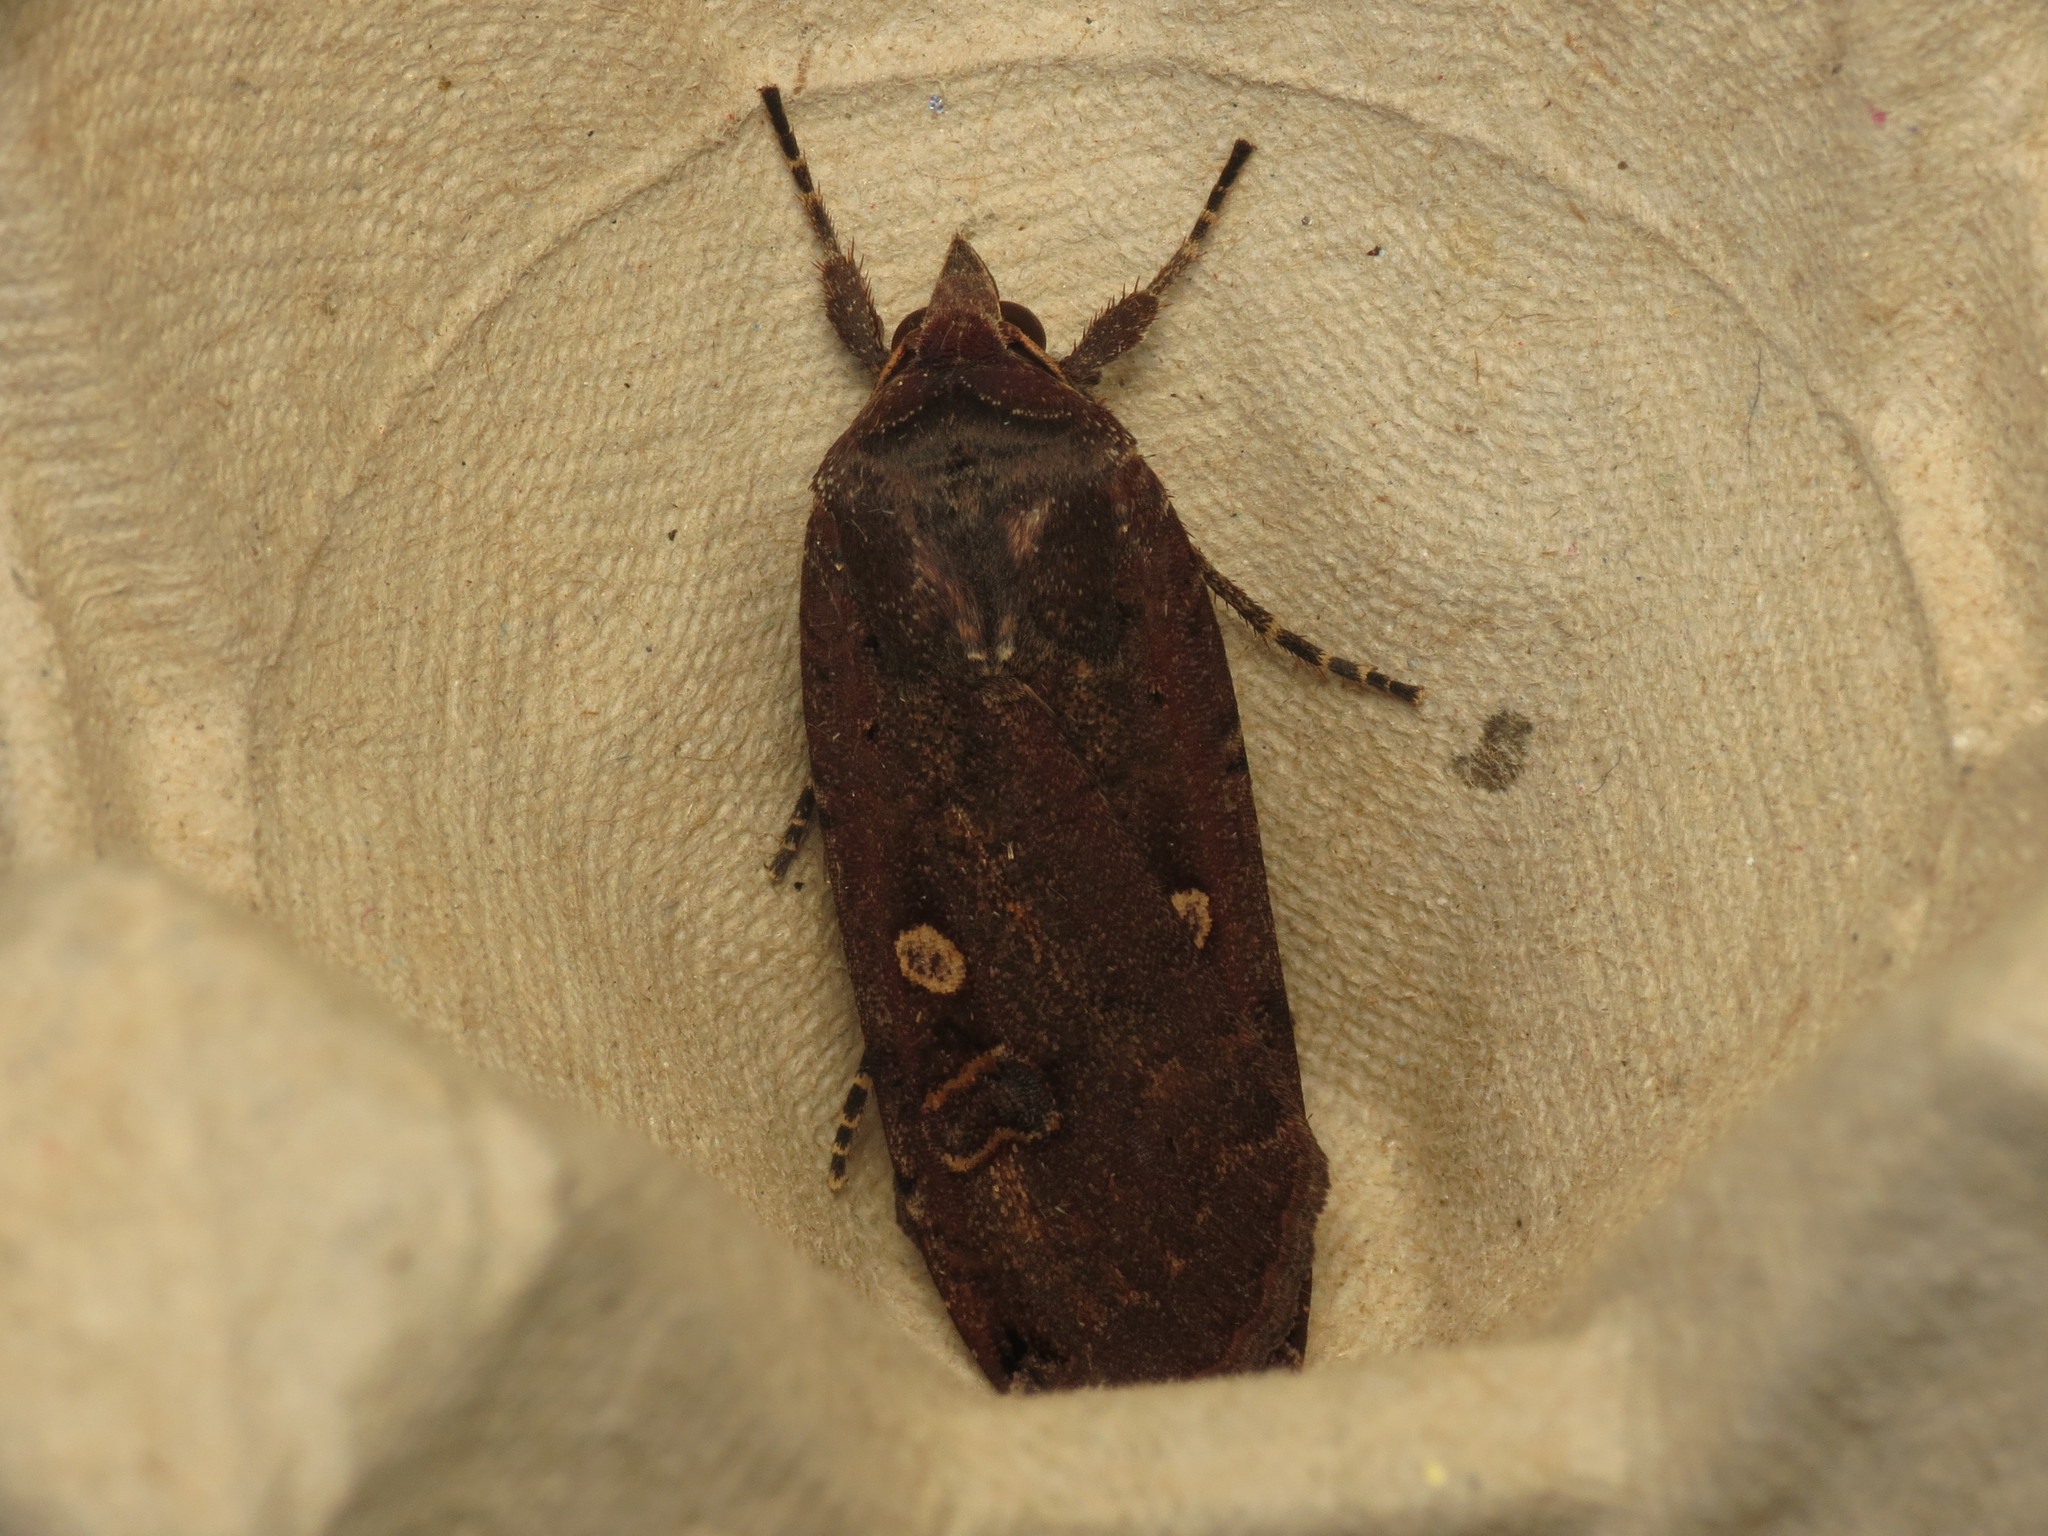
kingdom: Animalia
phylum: Arthropoda
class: Insecta
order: Lepidoptera
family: Noctuidae
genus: Noctua
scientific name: Noctua pronuba
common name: Large yellow underwing
